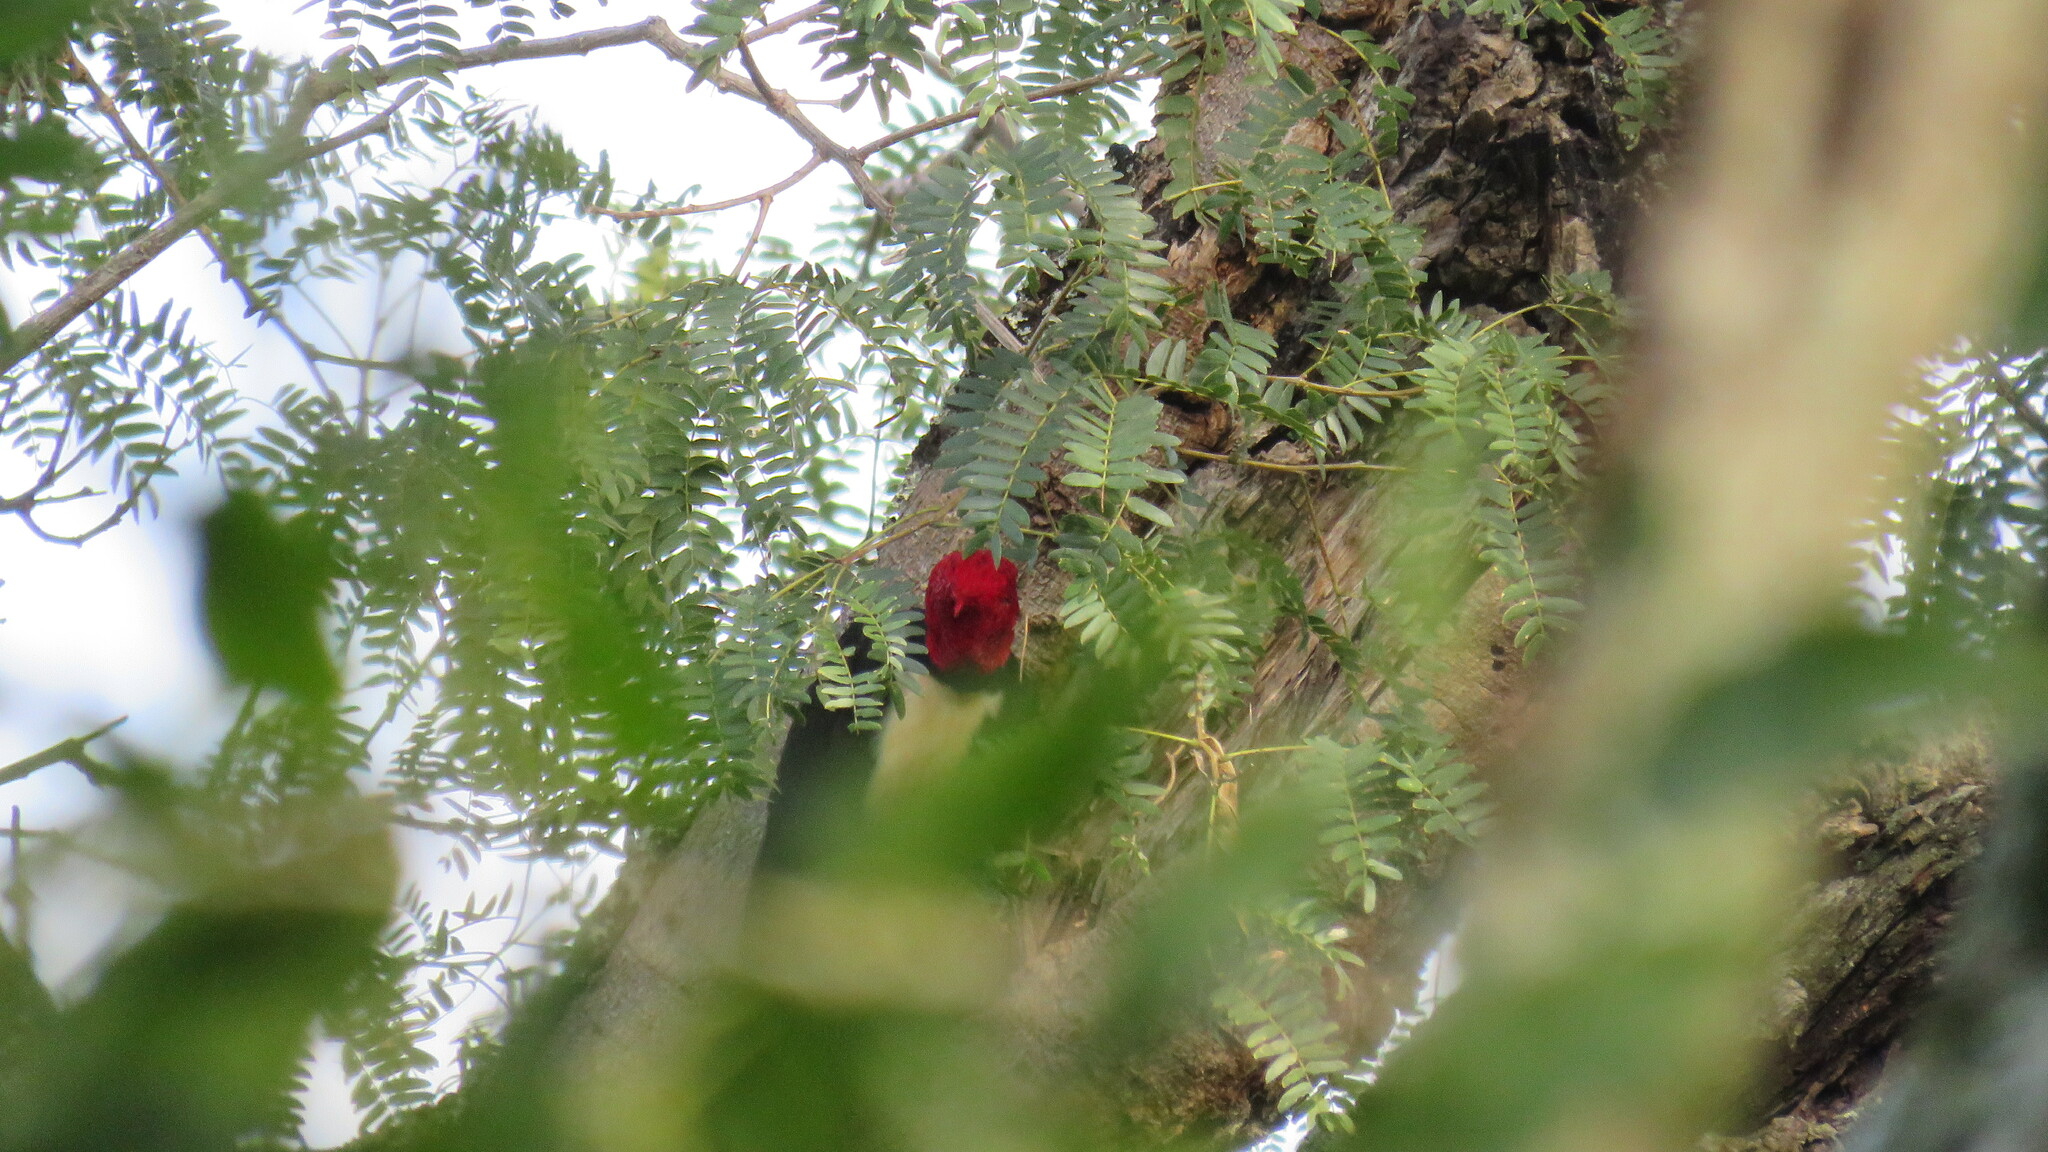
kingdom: Animalia
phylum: Chordata
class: Aves
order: Piciformes
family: Picidae
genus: Campephilus
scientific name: Campephilus leucopogon
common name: Cream-backed woodpecker
